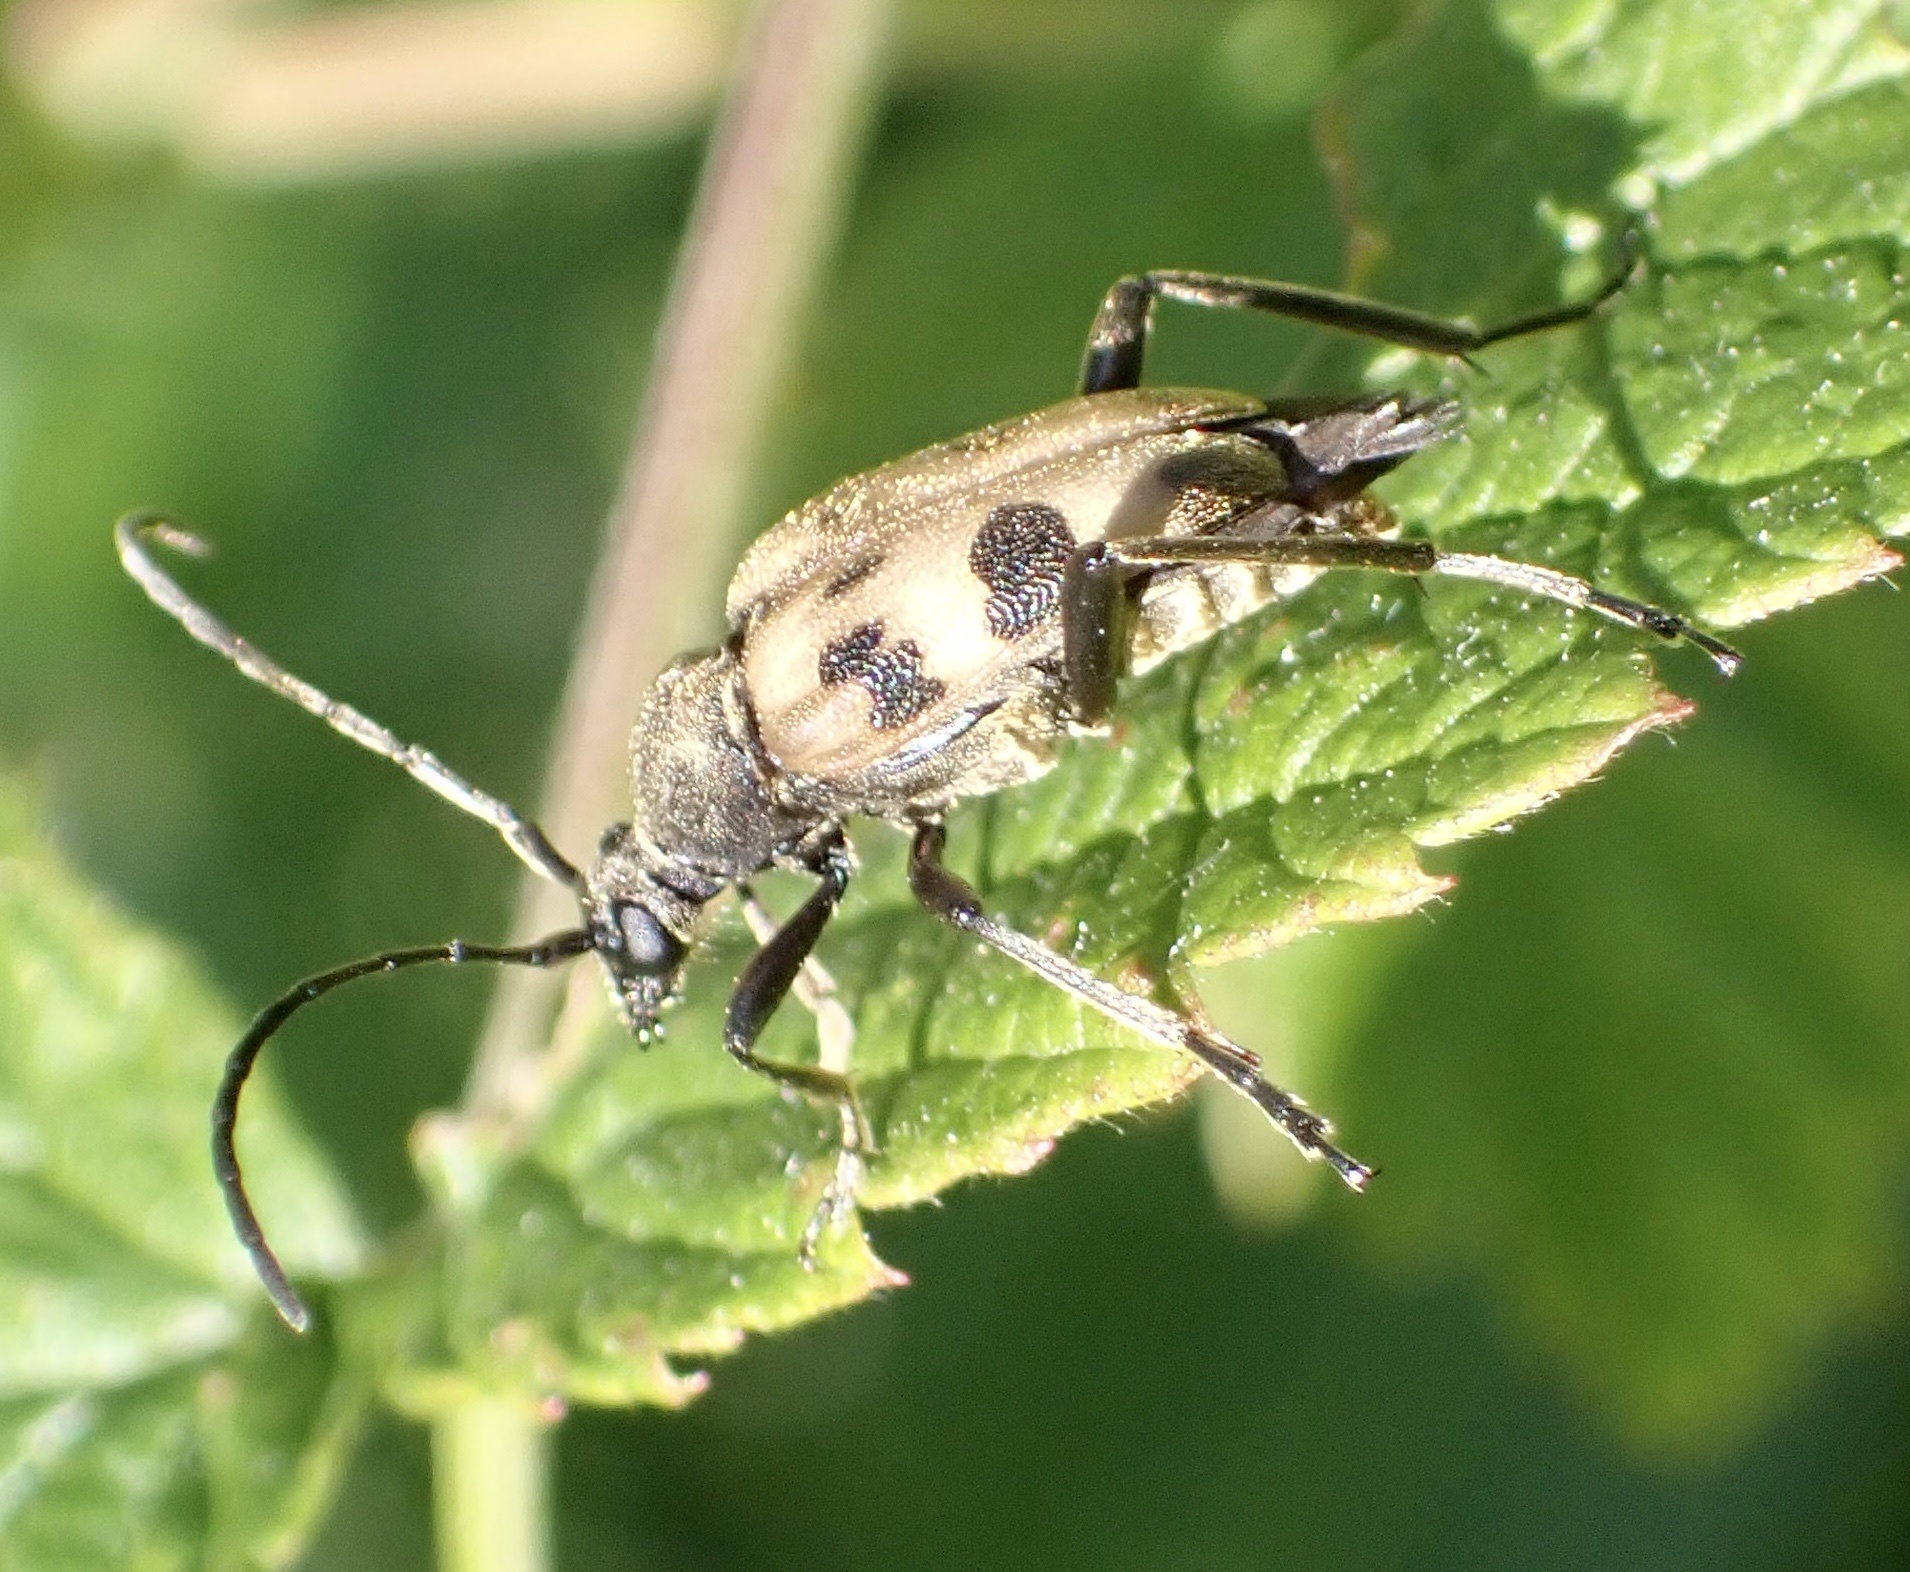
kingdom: Animalia
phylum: Arthropoda
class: Insecta
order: Coleoptera
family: Cerambycidae
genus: Pachytodes
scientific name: Pachytodes cerambyciformis
